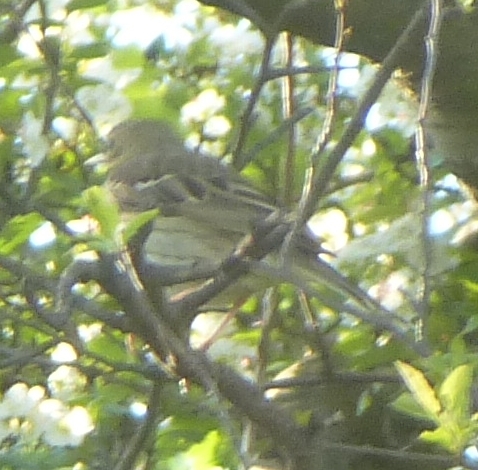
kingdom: Animalia
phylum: Chordata
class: Aves
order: Passeriformes
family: Motacillidae
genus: Anthus
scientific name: Anthus trivialis
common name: Tree pipit
